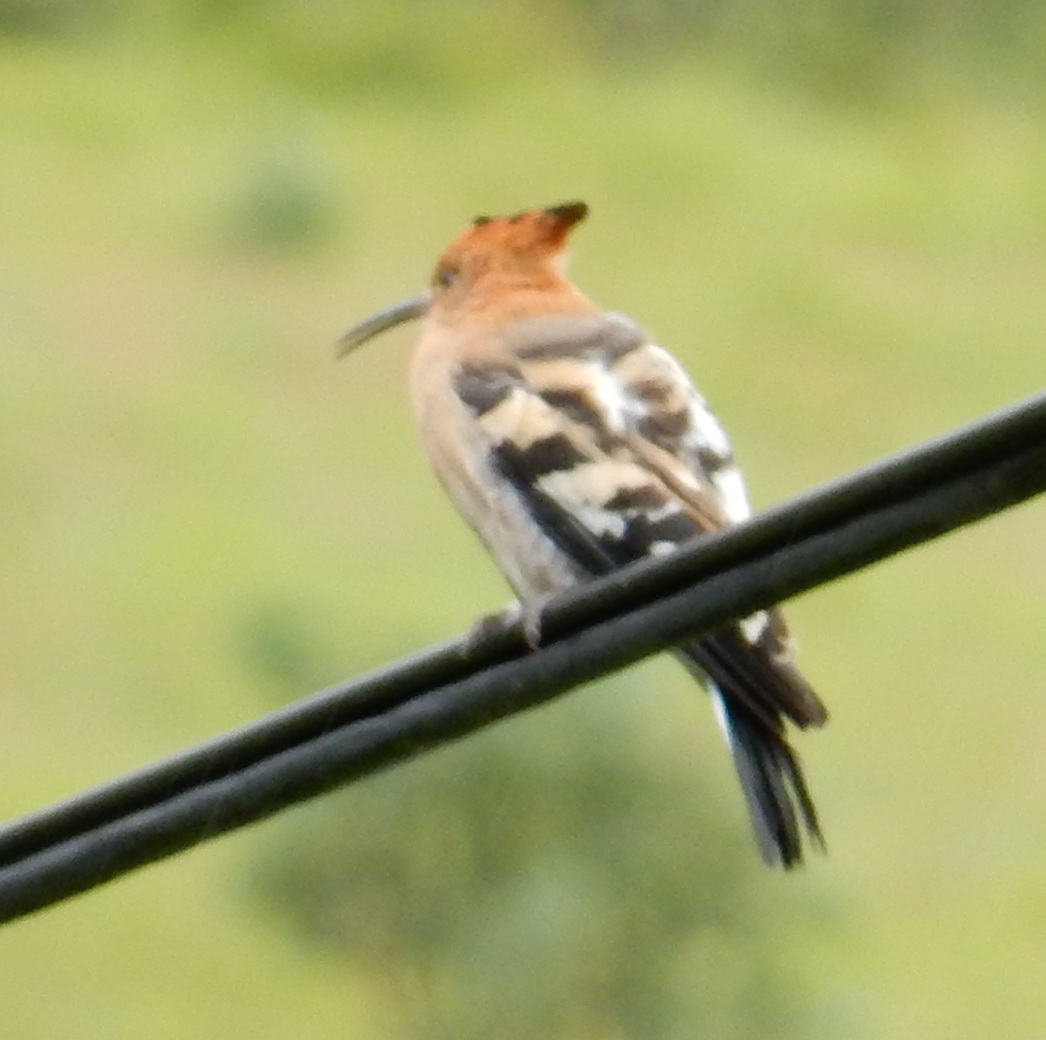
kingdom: Animalia
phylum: Chordata
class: Aves
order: Bucerotiformes
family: Upupidae
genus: Upupa
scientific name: Upupa africana
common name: African hoopoe
